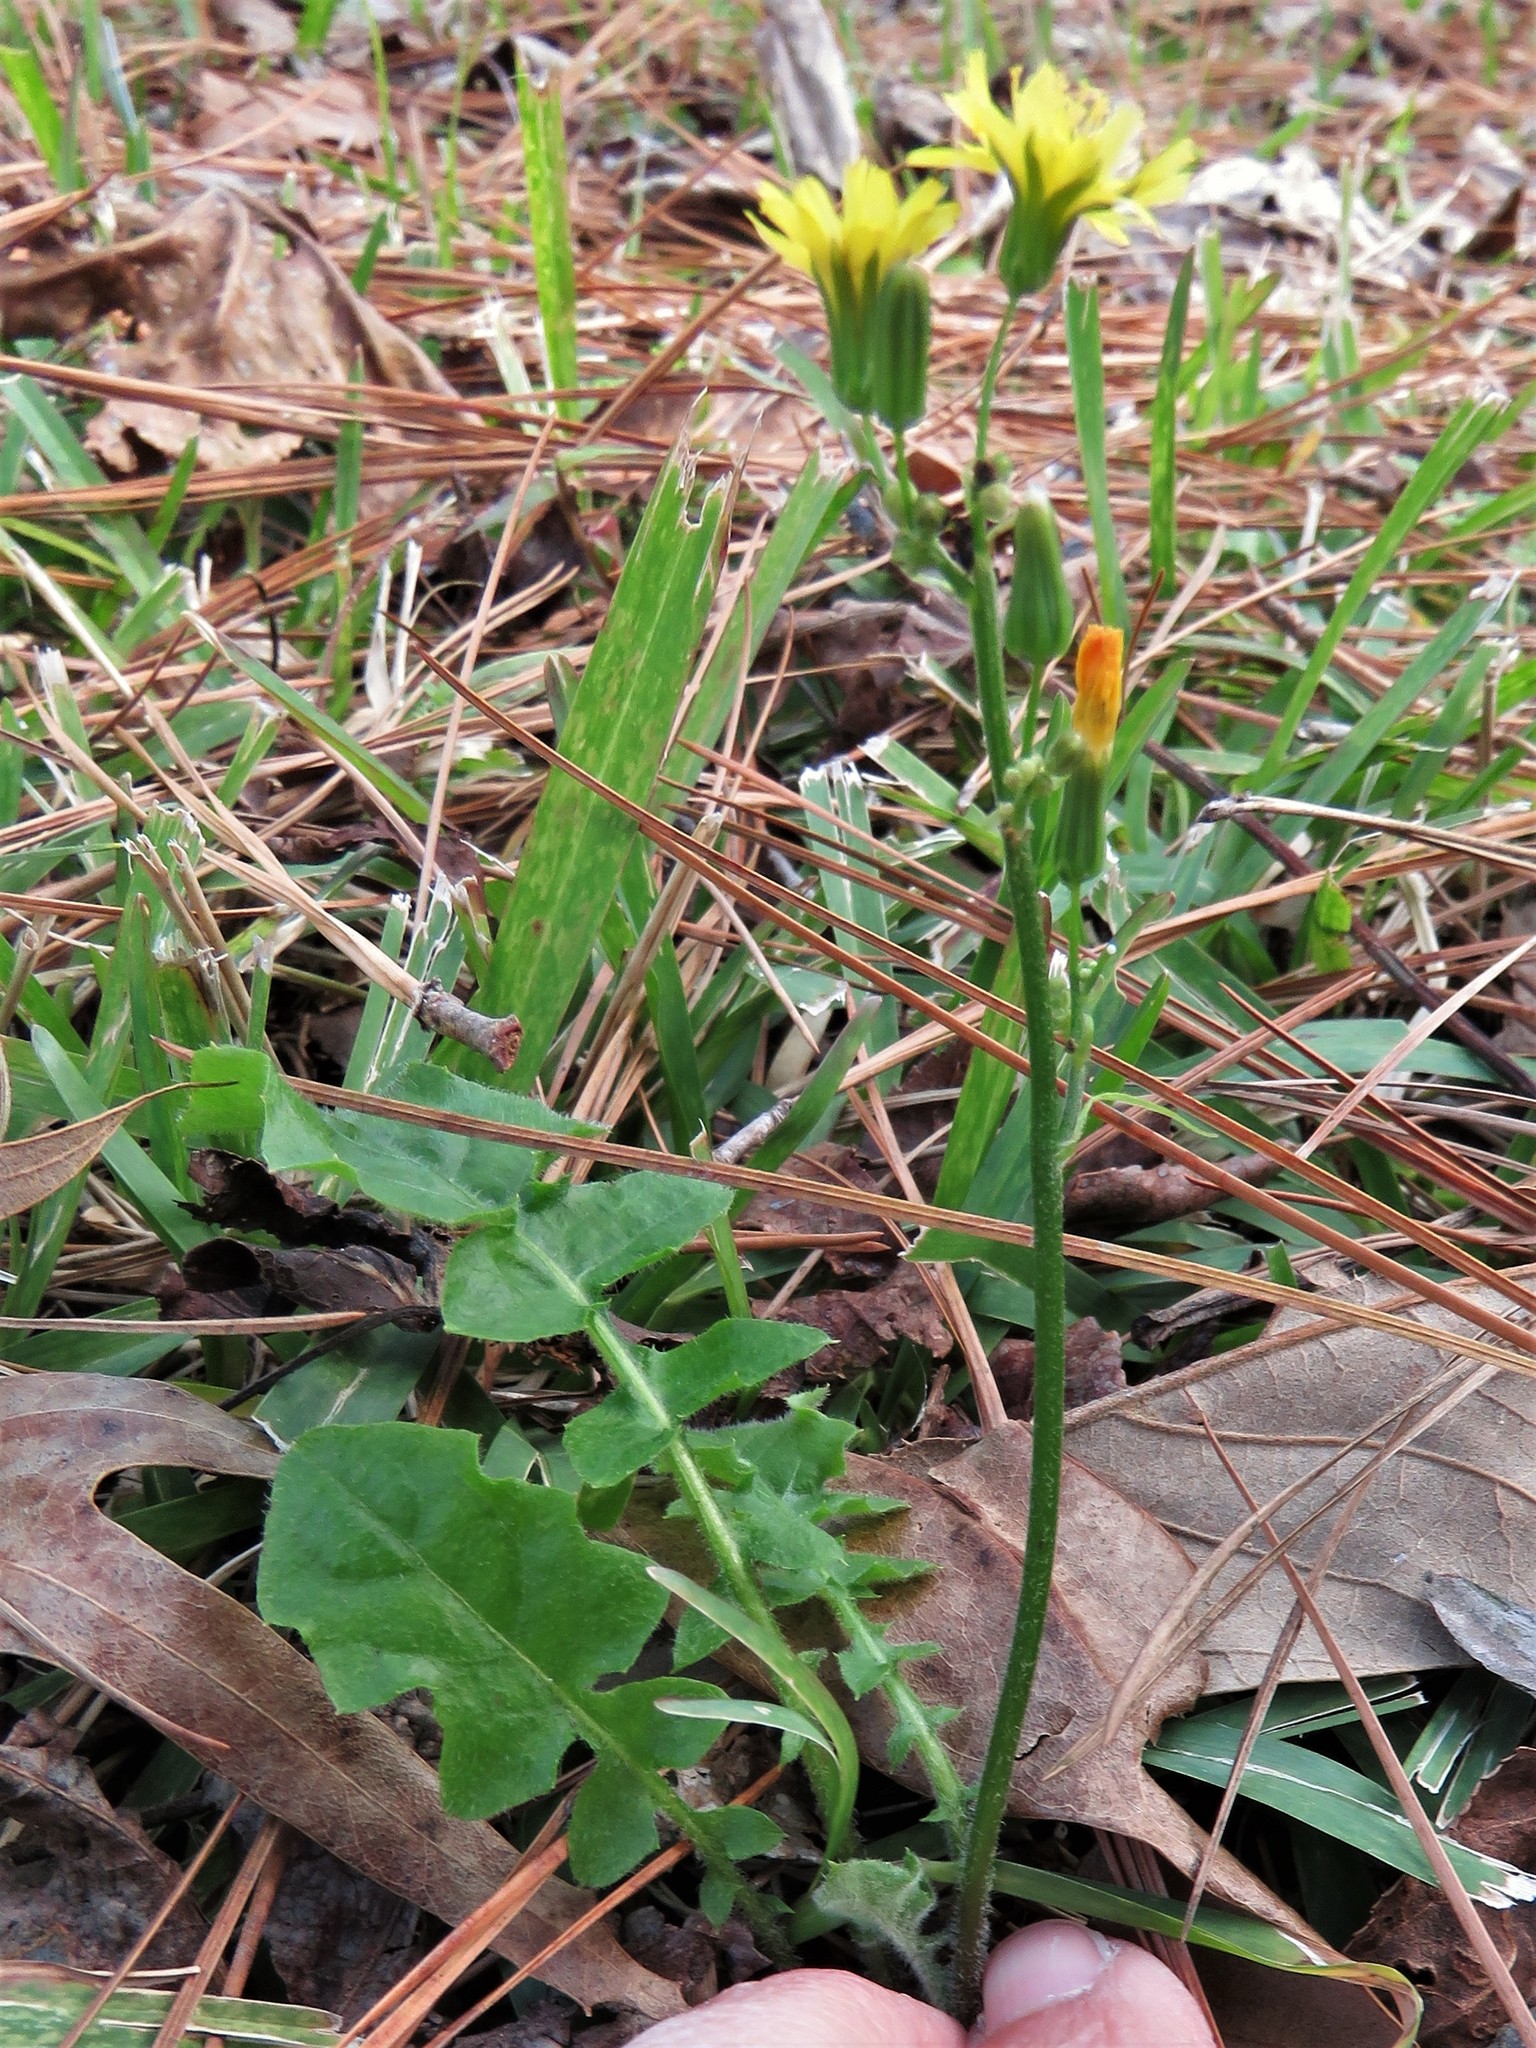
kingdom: Plantae
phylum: Tracheophyta
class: Magnoliopsida
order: Asterales
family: Asteraceae
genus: Youngia
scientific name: Youngia japonica
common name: Oriental false hawksbeard
